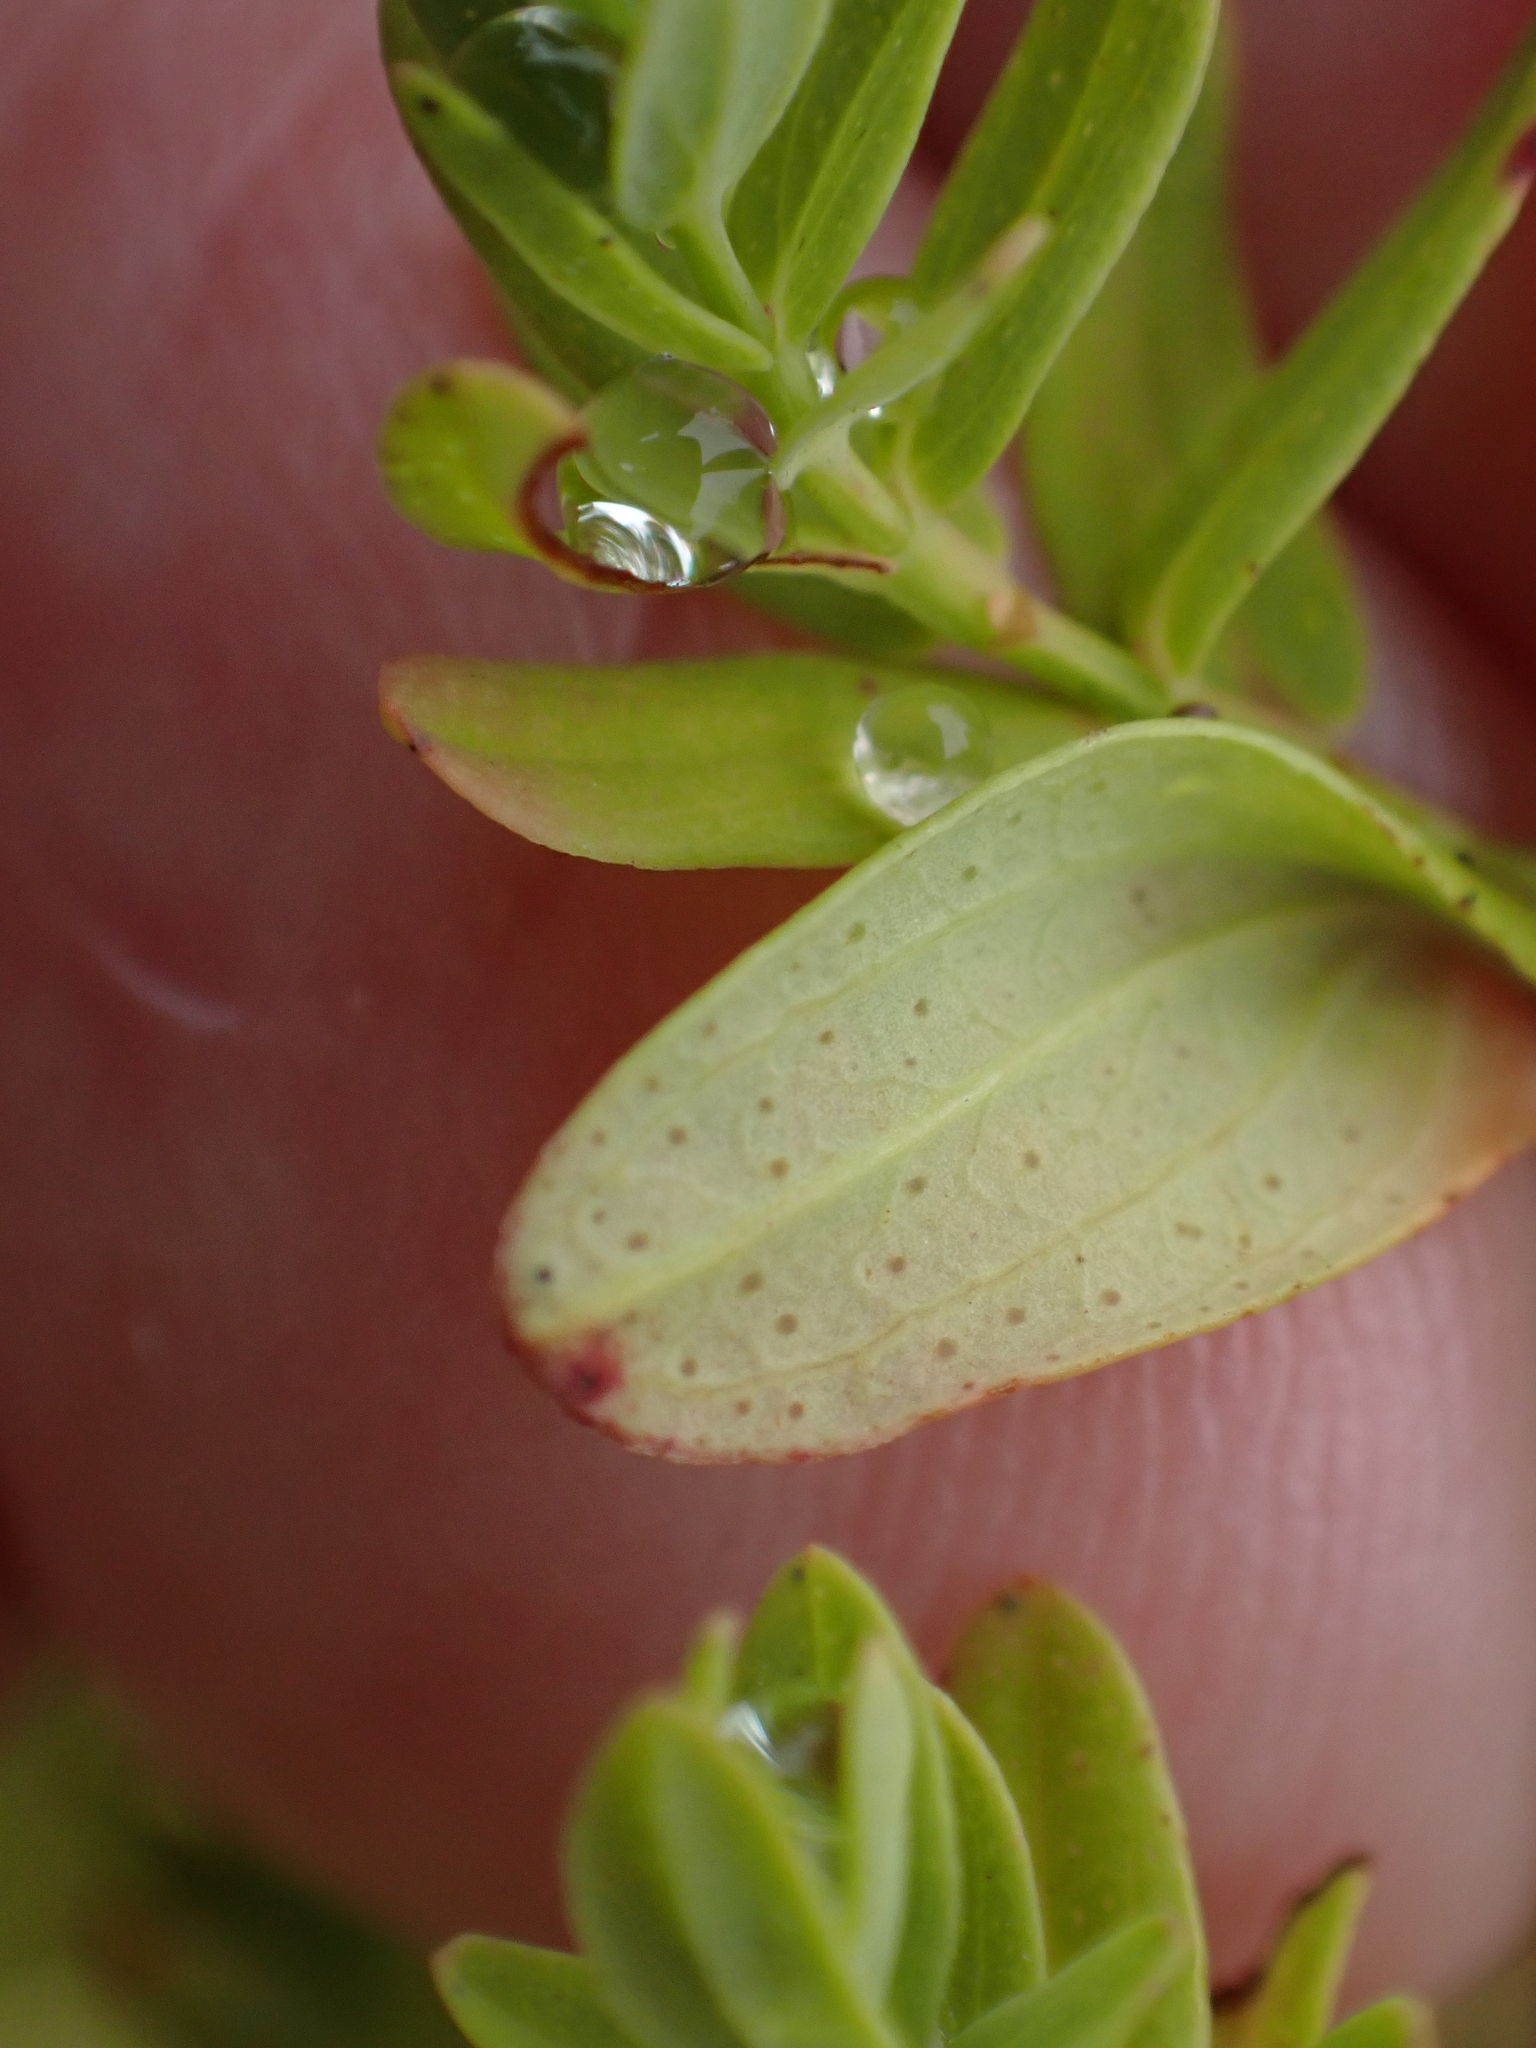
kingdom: Plantae
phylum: Tracheophyta
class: Magnoliopsida
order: Malpighiales
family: Hypericaceae
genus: Hypericum
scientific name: Hypericum perforatum
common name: Common st. johnswort
